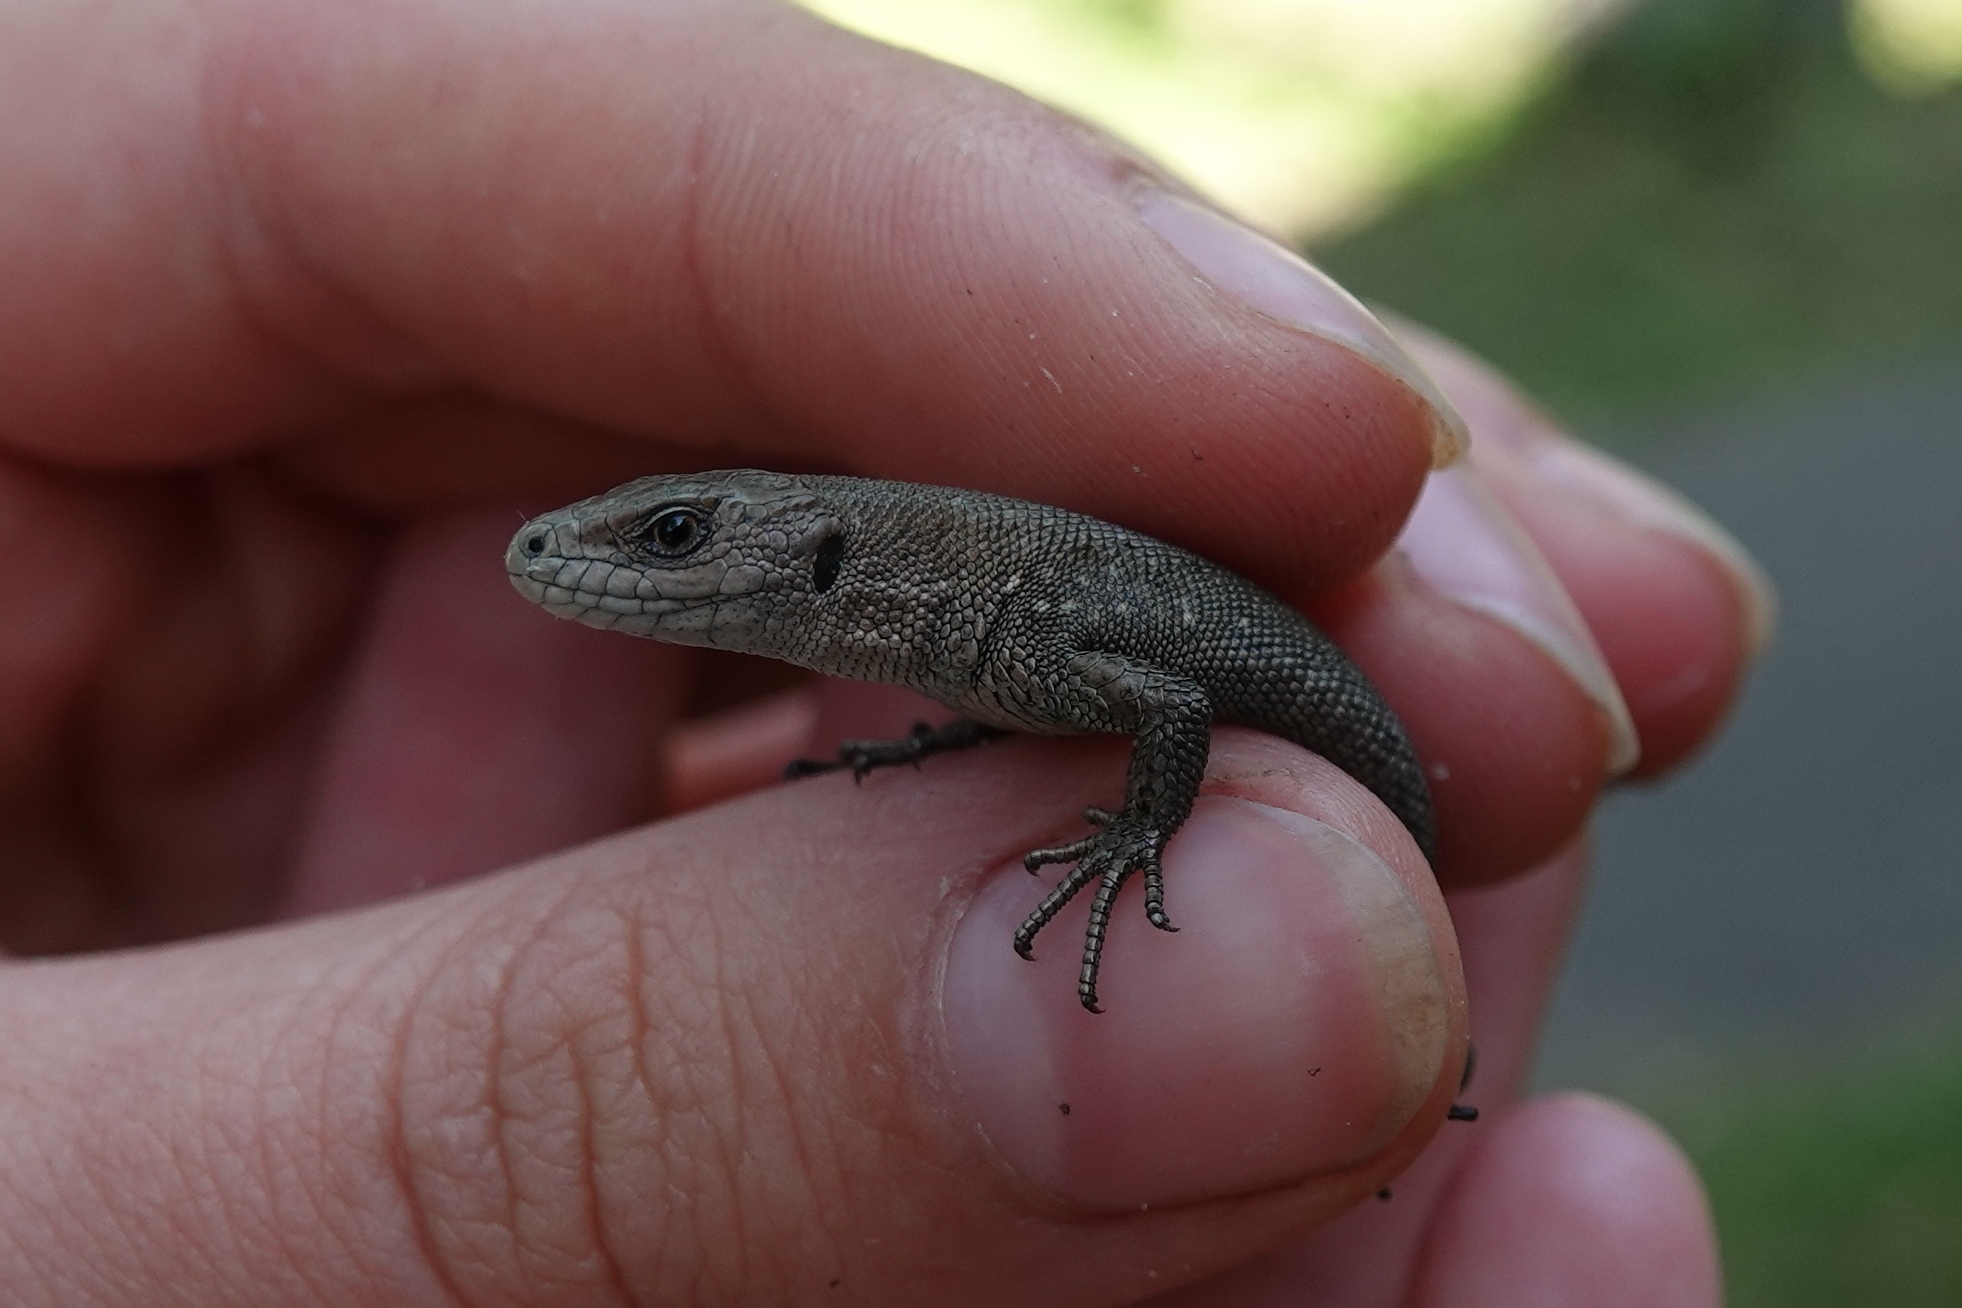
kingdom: Animalia
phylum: Chordata
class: Squamata
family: Lacertidae
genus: Zootoca
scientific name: Zootoca vivipara
